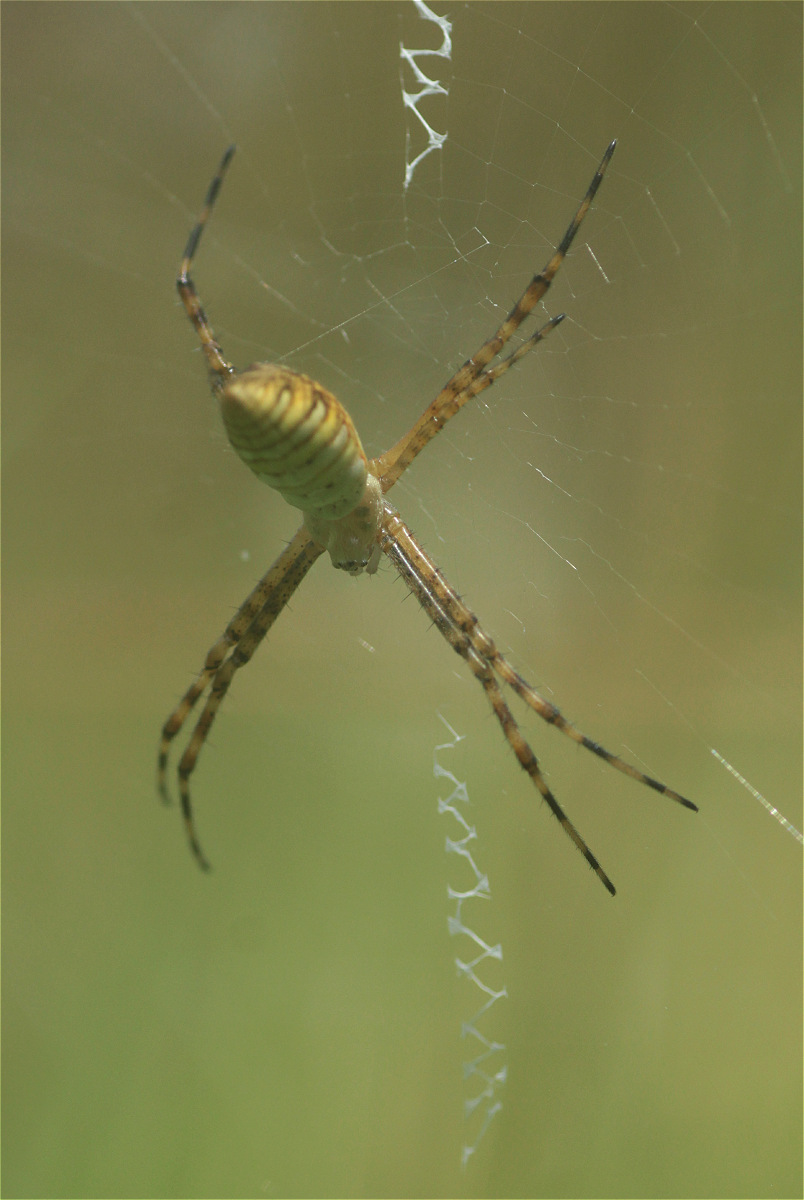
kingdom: Animalia
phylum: Arthropoda
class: Arachnida
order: Araneae
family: Araneidae
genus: Argiope
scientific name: Argiope trifasciata
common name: Banded garden spider
